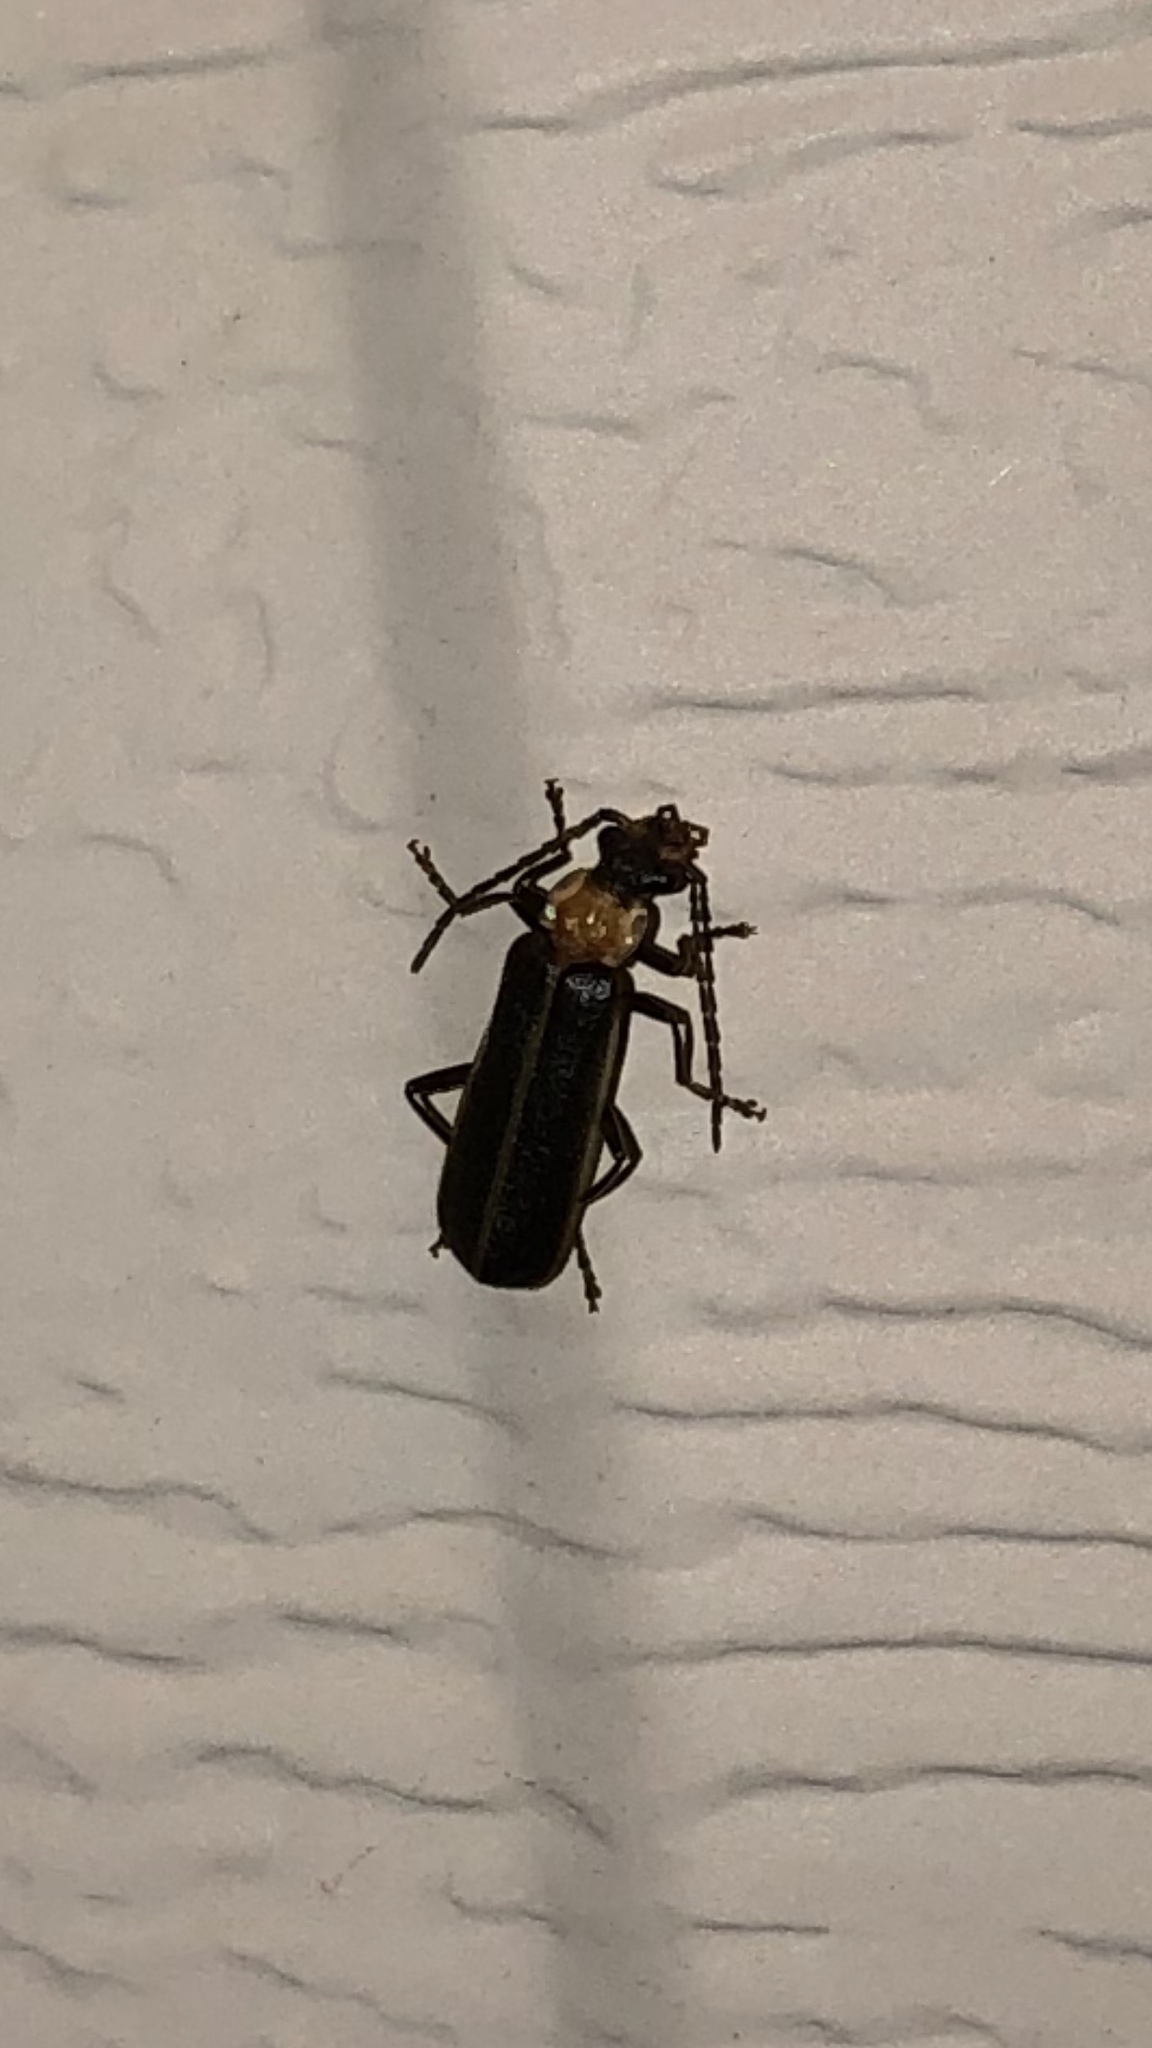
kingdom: Animalia
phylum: Arthropoda
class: Insecta
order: Coleoptera
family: Cantharidae
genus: Podabrus
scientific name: Podabrus flavicollis
